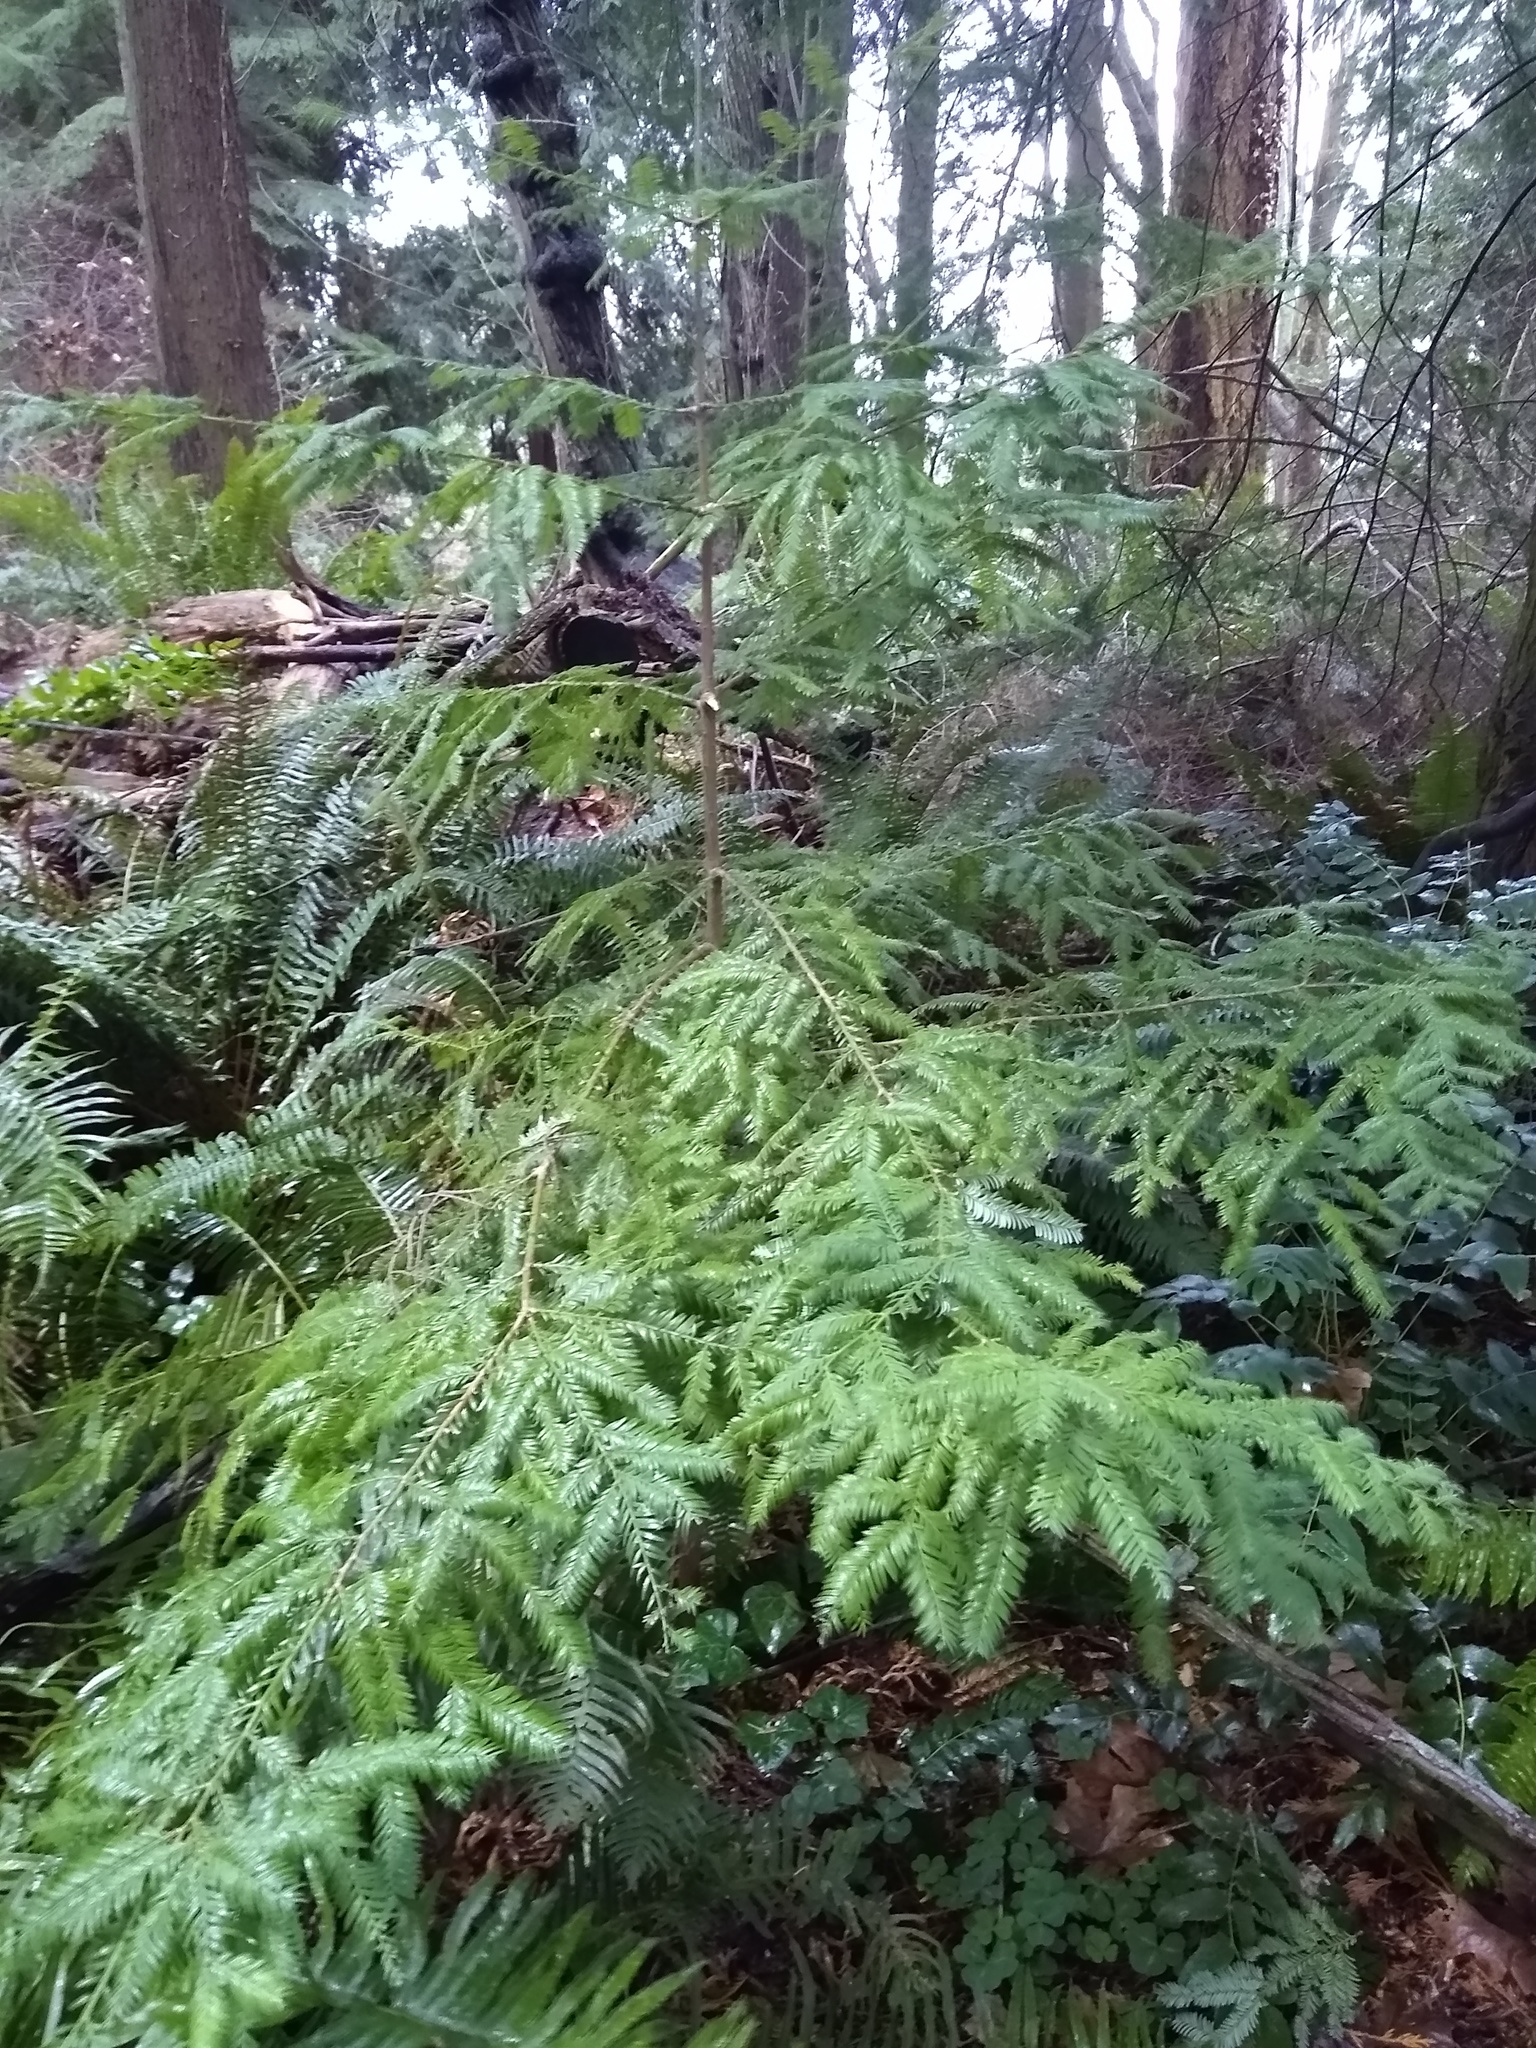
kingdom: Plantae
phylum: Tracheophyta
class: Pinopsida
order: Pinales
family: Taxaceae
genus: Taxus
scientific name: Taxus brevifolia
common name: Pacific yew
